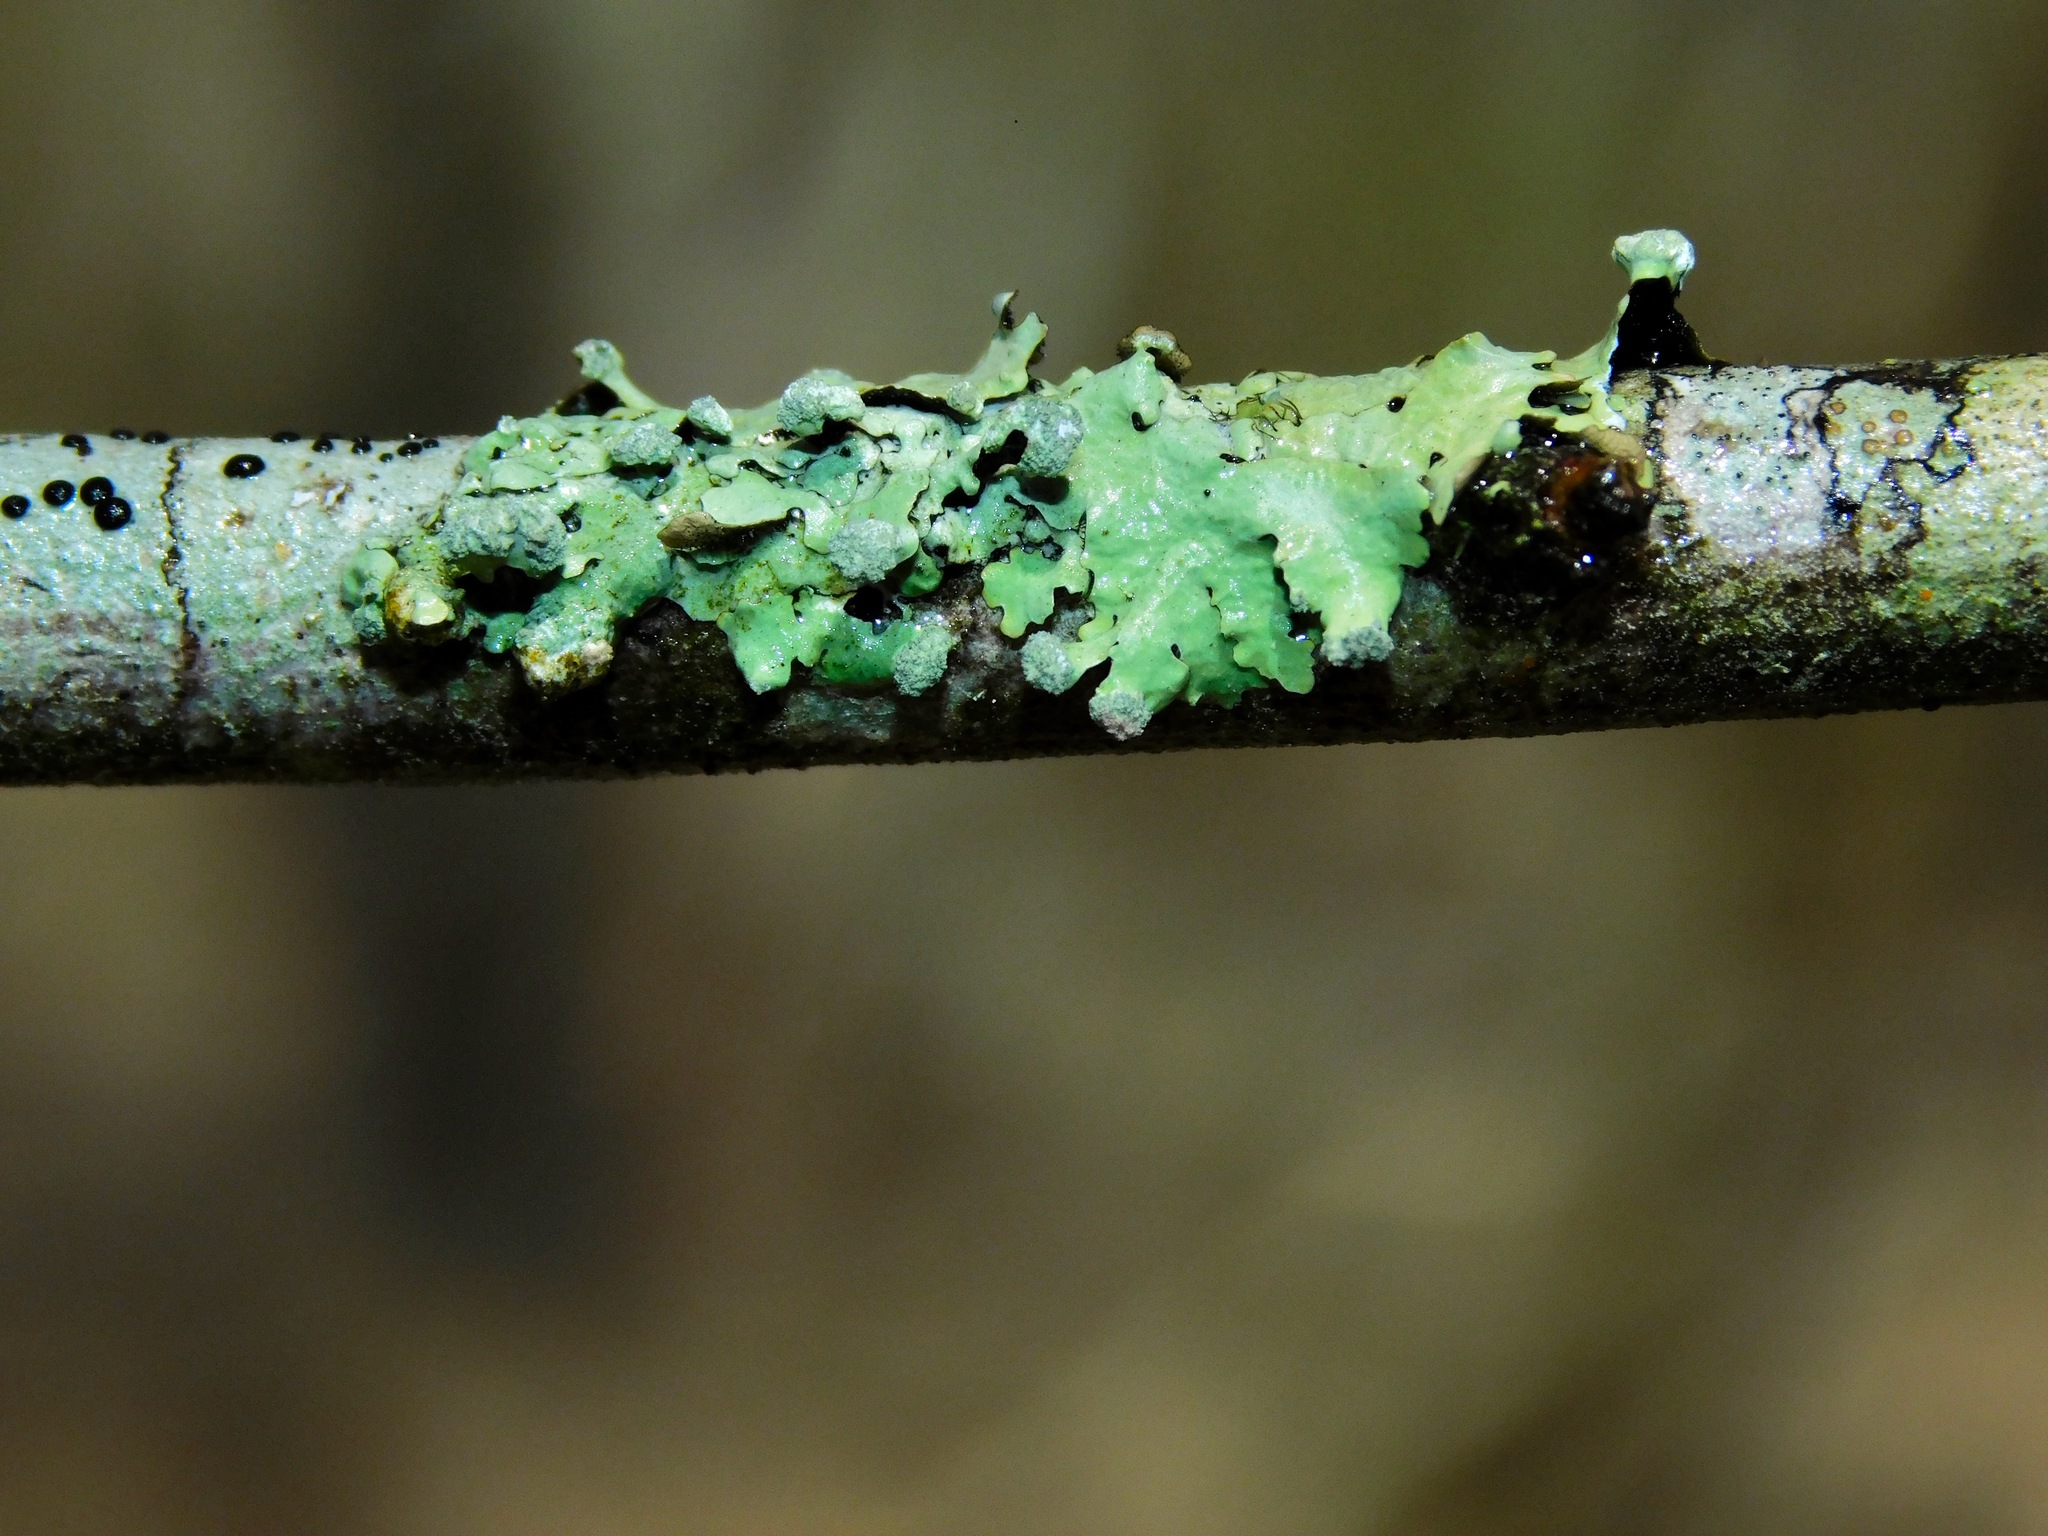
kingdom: Fungi
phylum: Ascomycota
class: Lecanoromycetes
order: Lecanorales
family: Parmeliaceae
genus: Myelochroa
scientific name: Myelochroa metarevoluta
